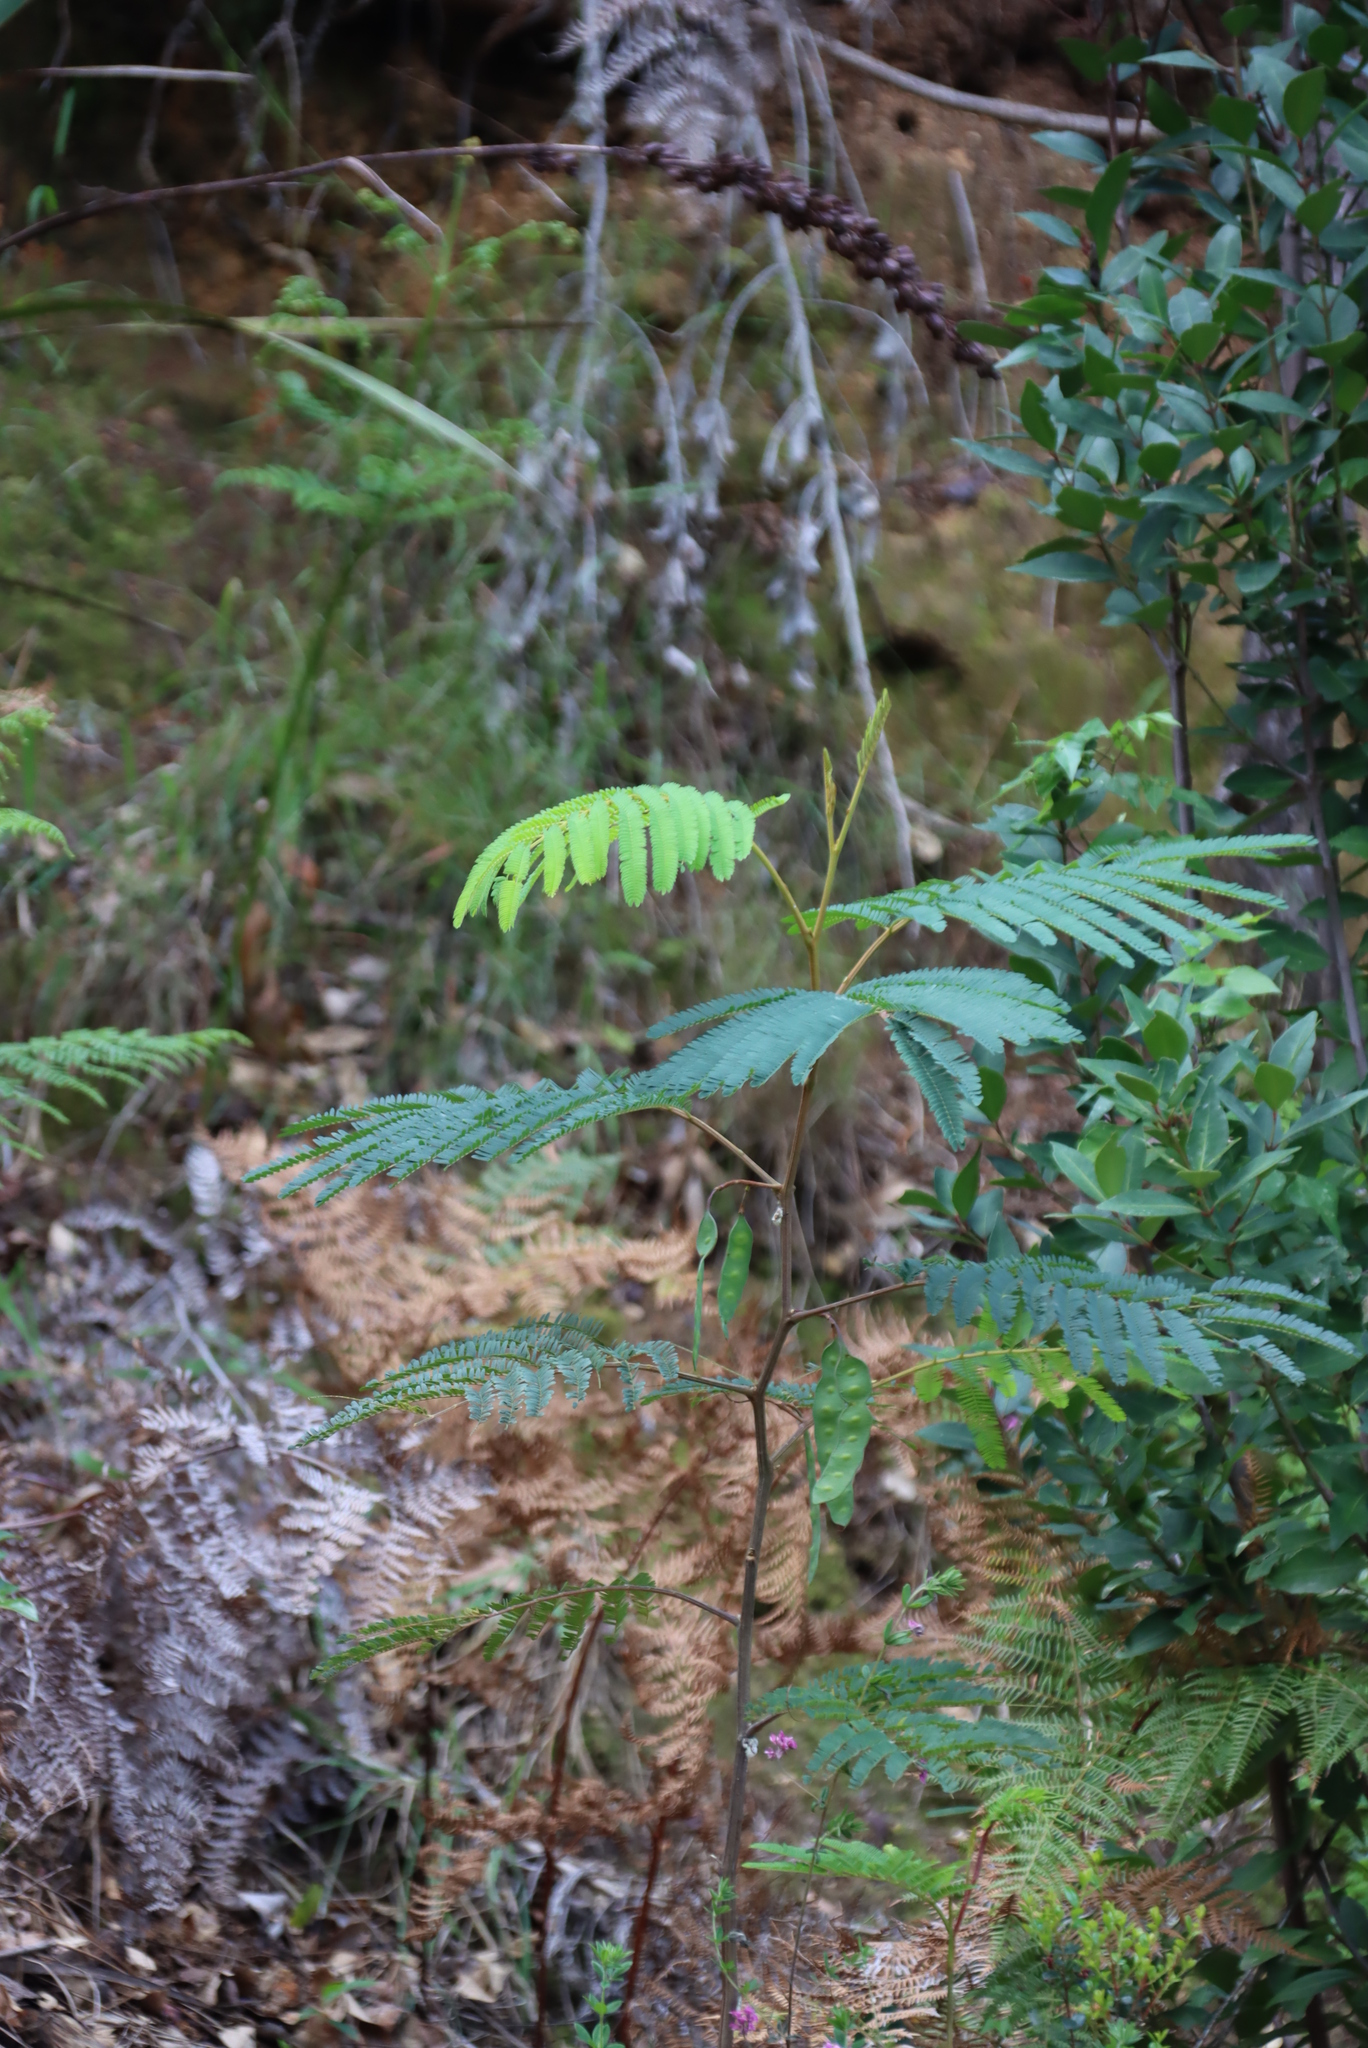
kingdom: Plantae
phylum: Tracheophyta
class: Magnoliopsida
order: Fabales
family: Fabaceae
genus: Paraserianthes
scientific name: Paraserianthes lophantha
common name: Plume albizia
